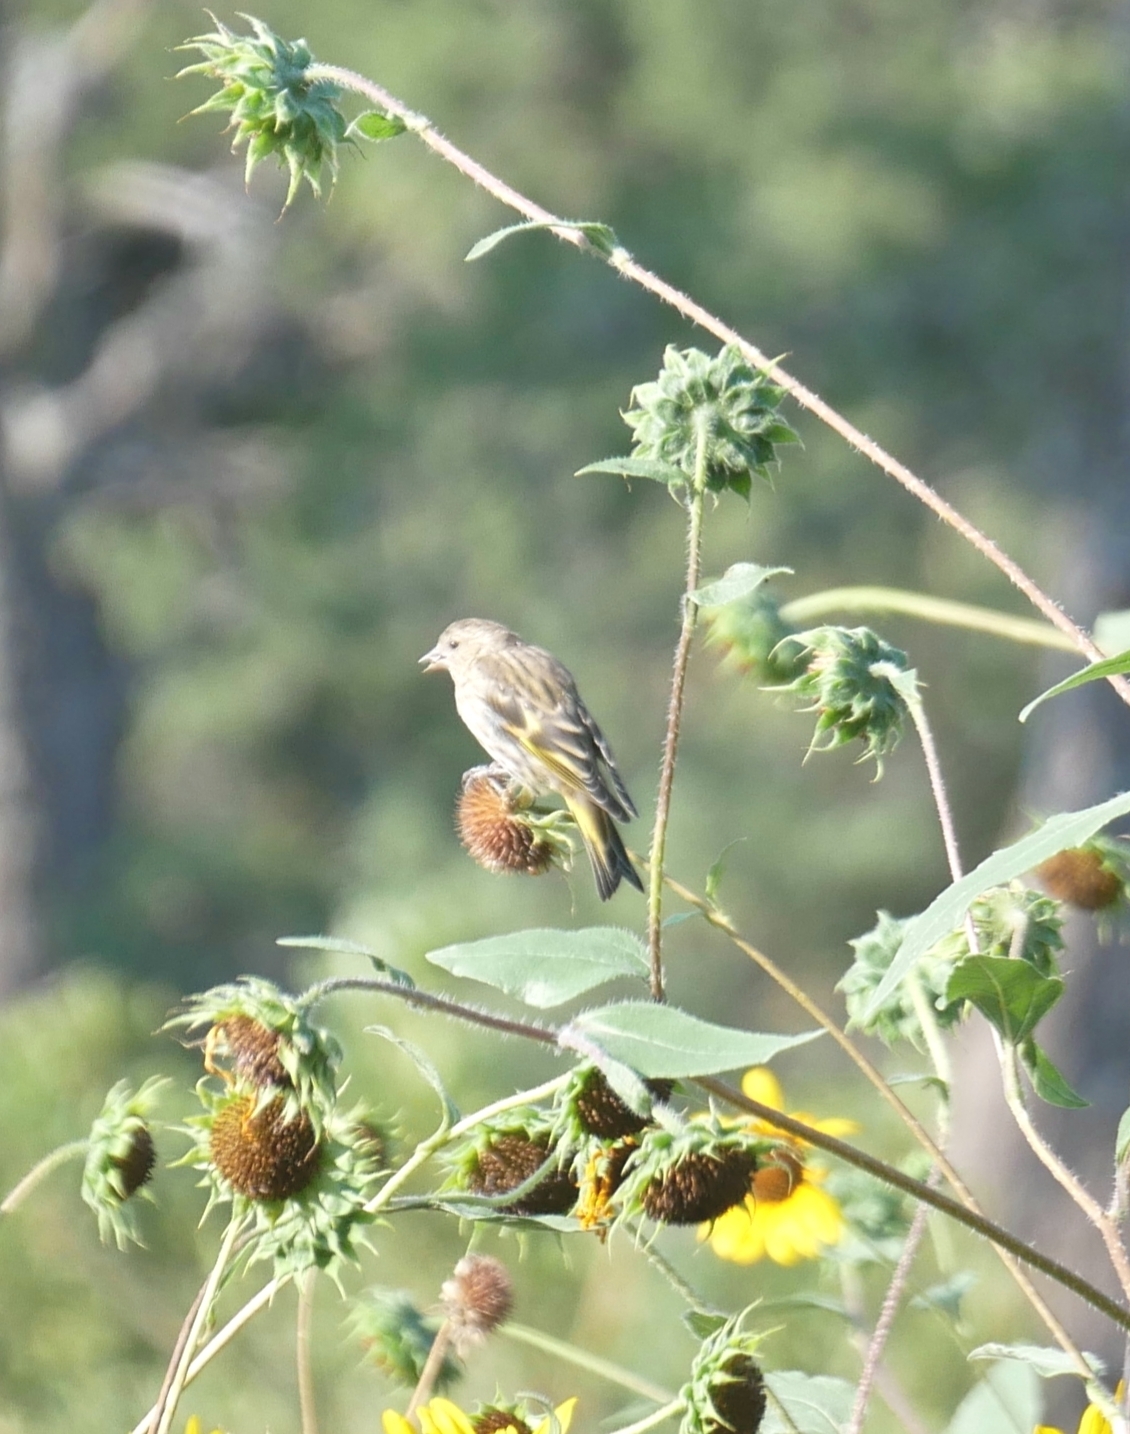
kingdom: Animalia
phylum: Chordata
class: Aves
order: Passeriformes
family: Fringillidae
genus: Spinus
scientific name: Spinus pinus
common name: Pine siskin
